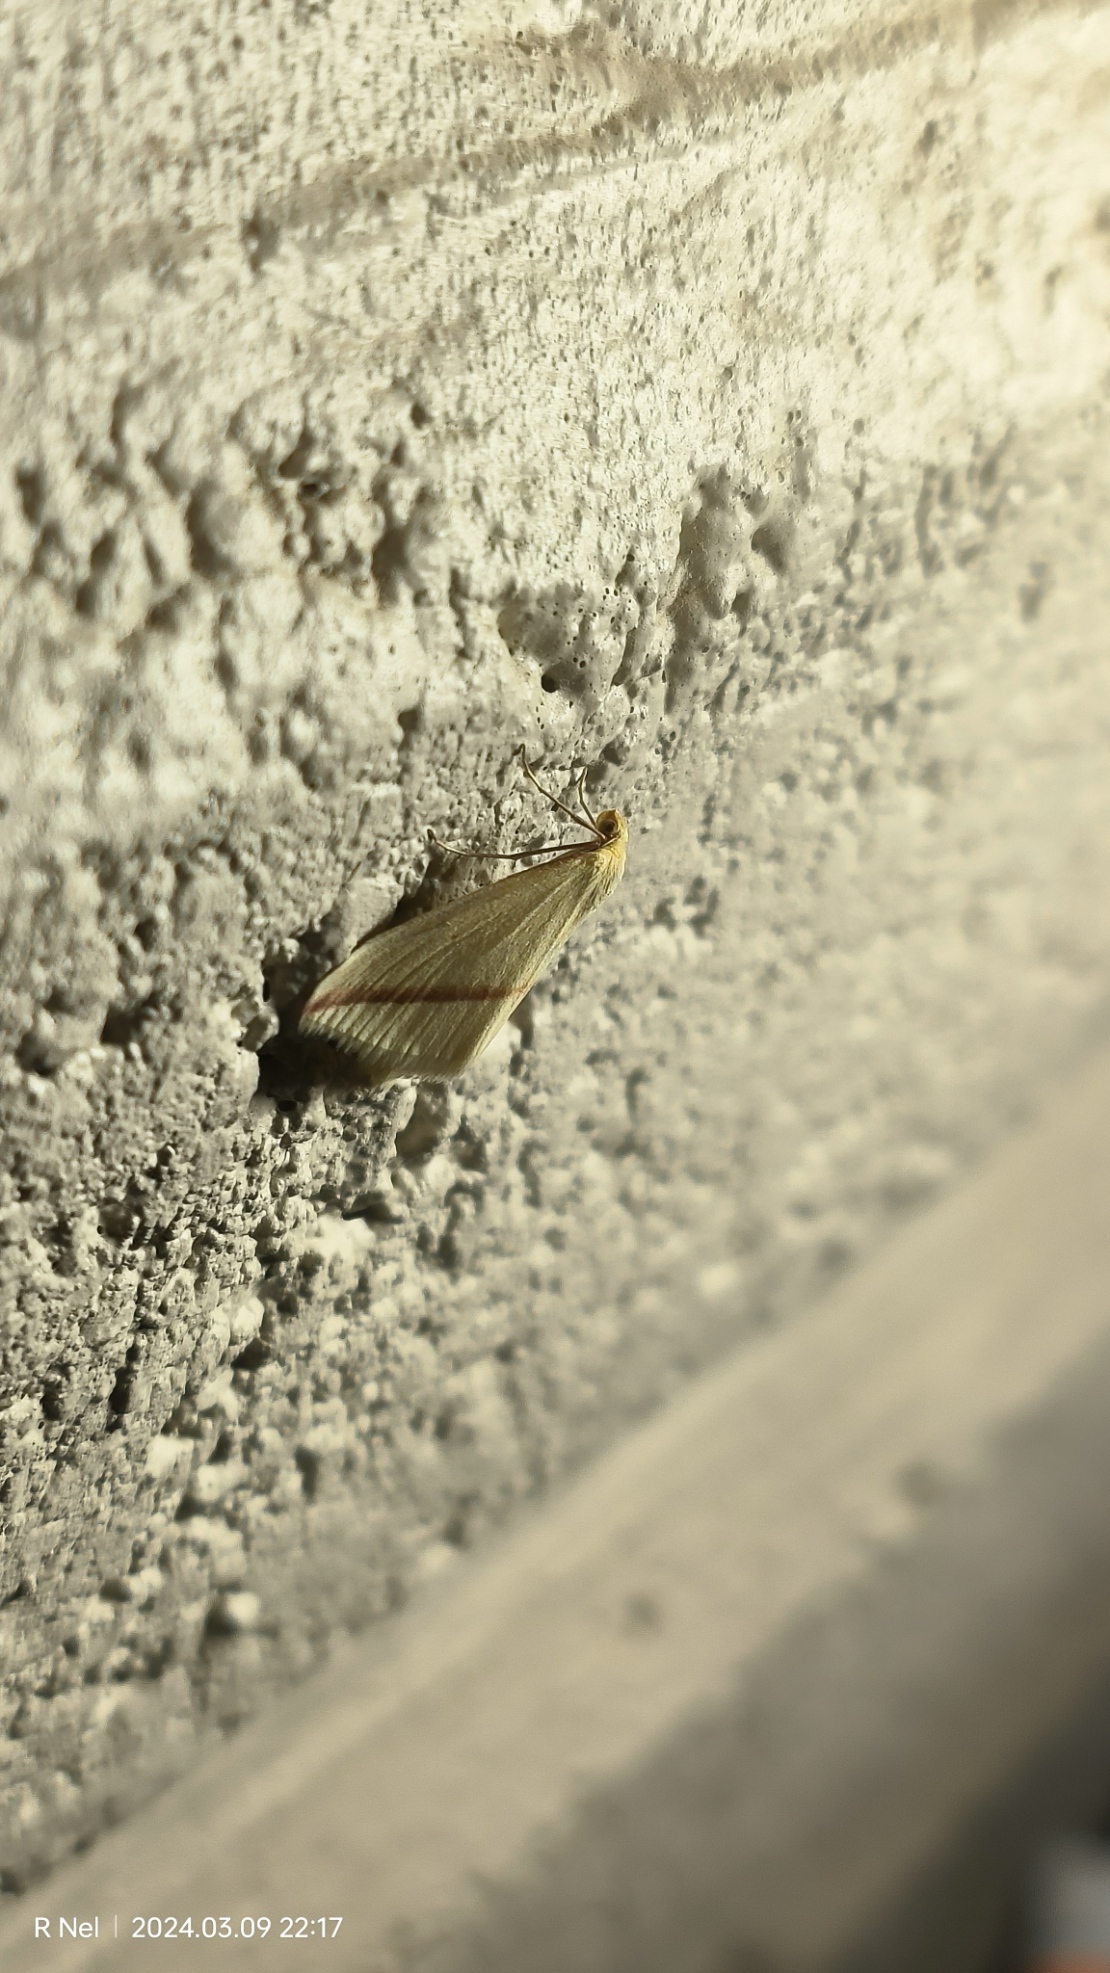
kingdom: Animalia
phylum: Arthropoda
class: Insecta
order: Lepidoptera
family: Geometridae
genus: Rhodometra
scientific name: Rhodometra sacraria
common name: Vestal
